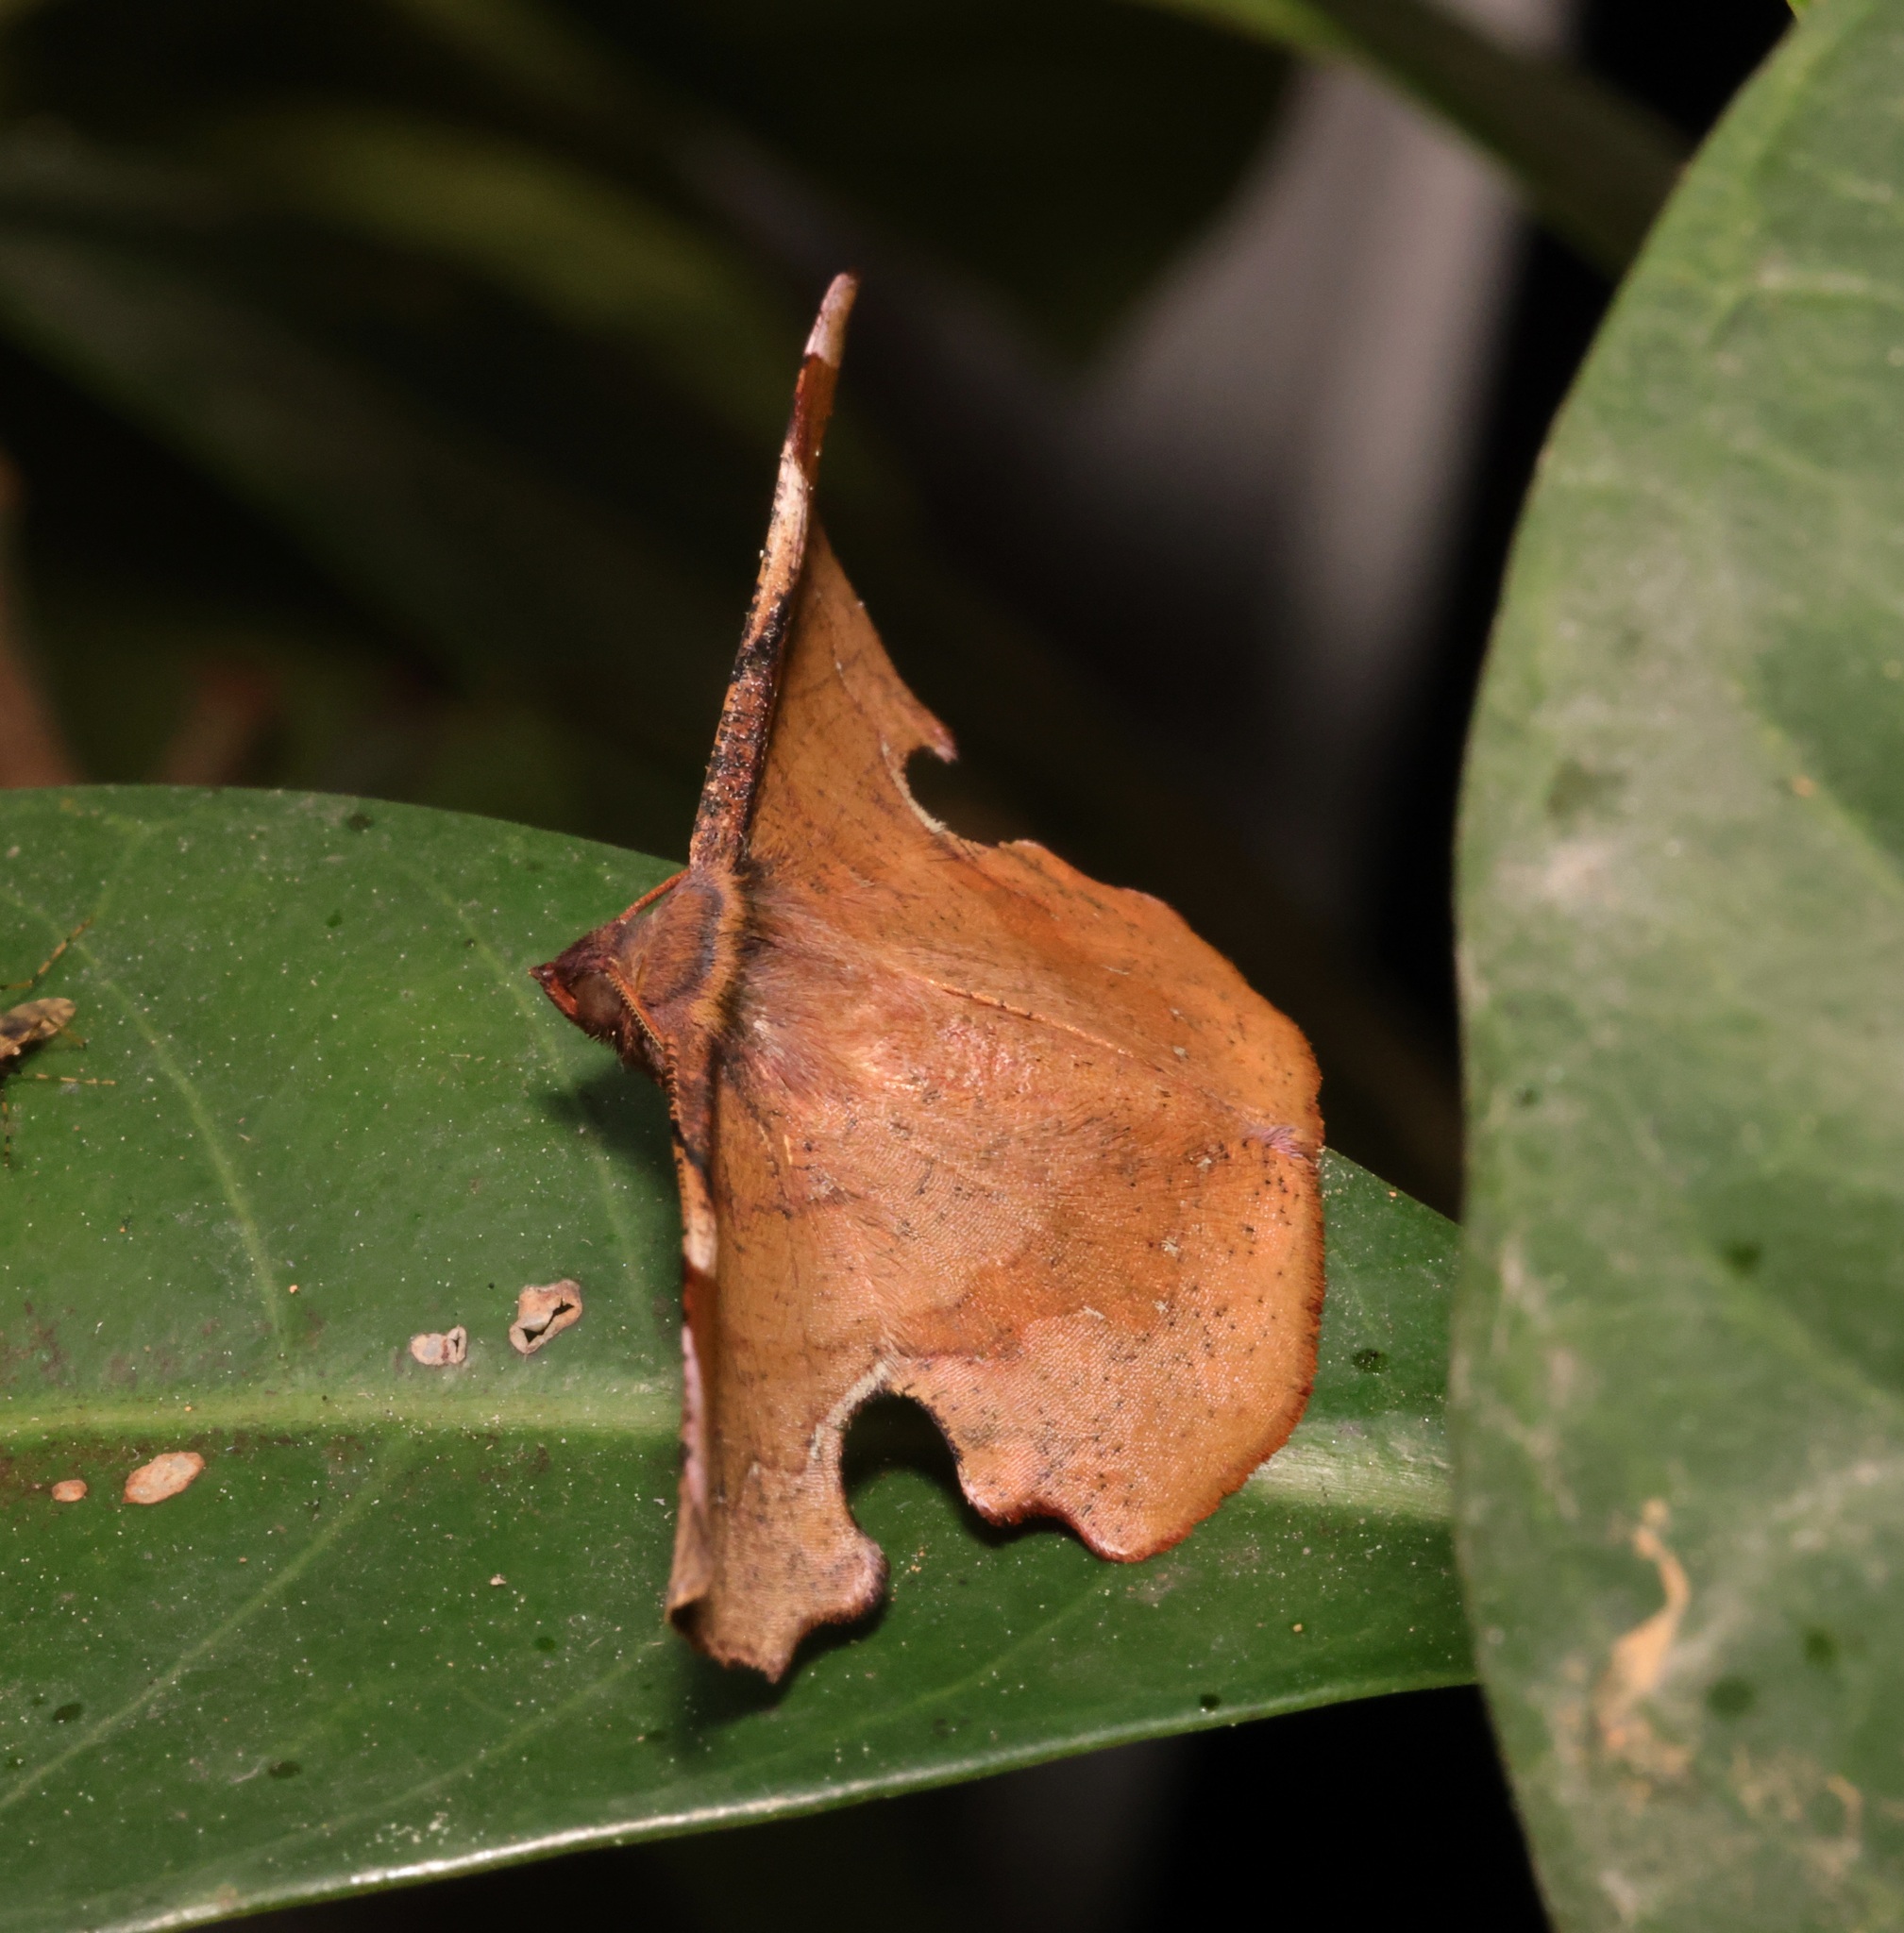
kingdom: Animalia
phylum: Arthropoda
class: Insecta
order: Lepidoptera
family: Geometridae
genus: Fascellina
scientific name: Fascellina chromataria
